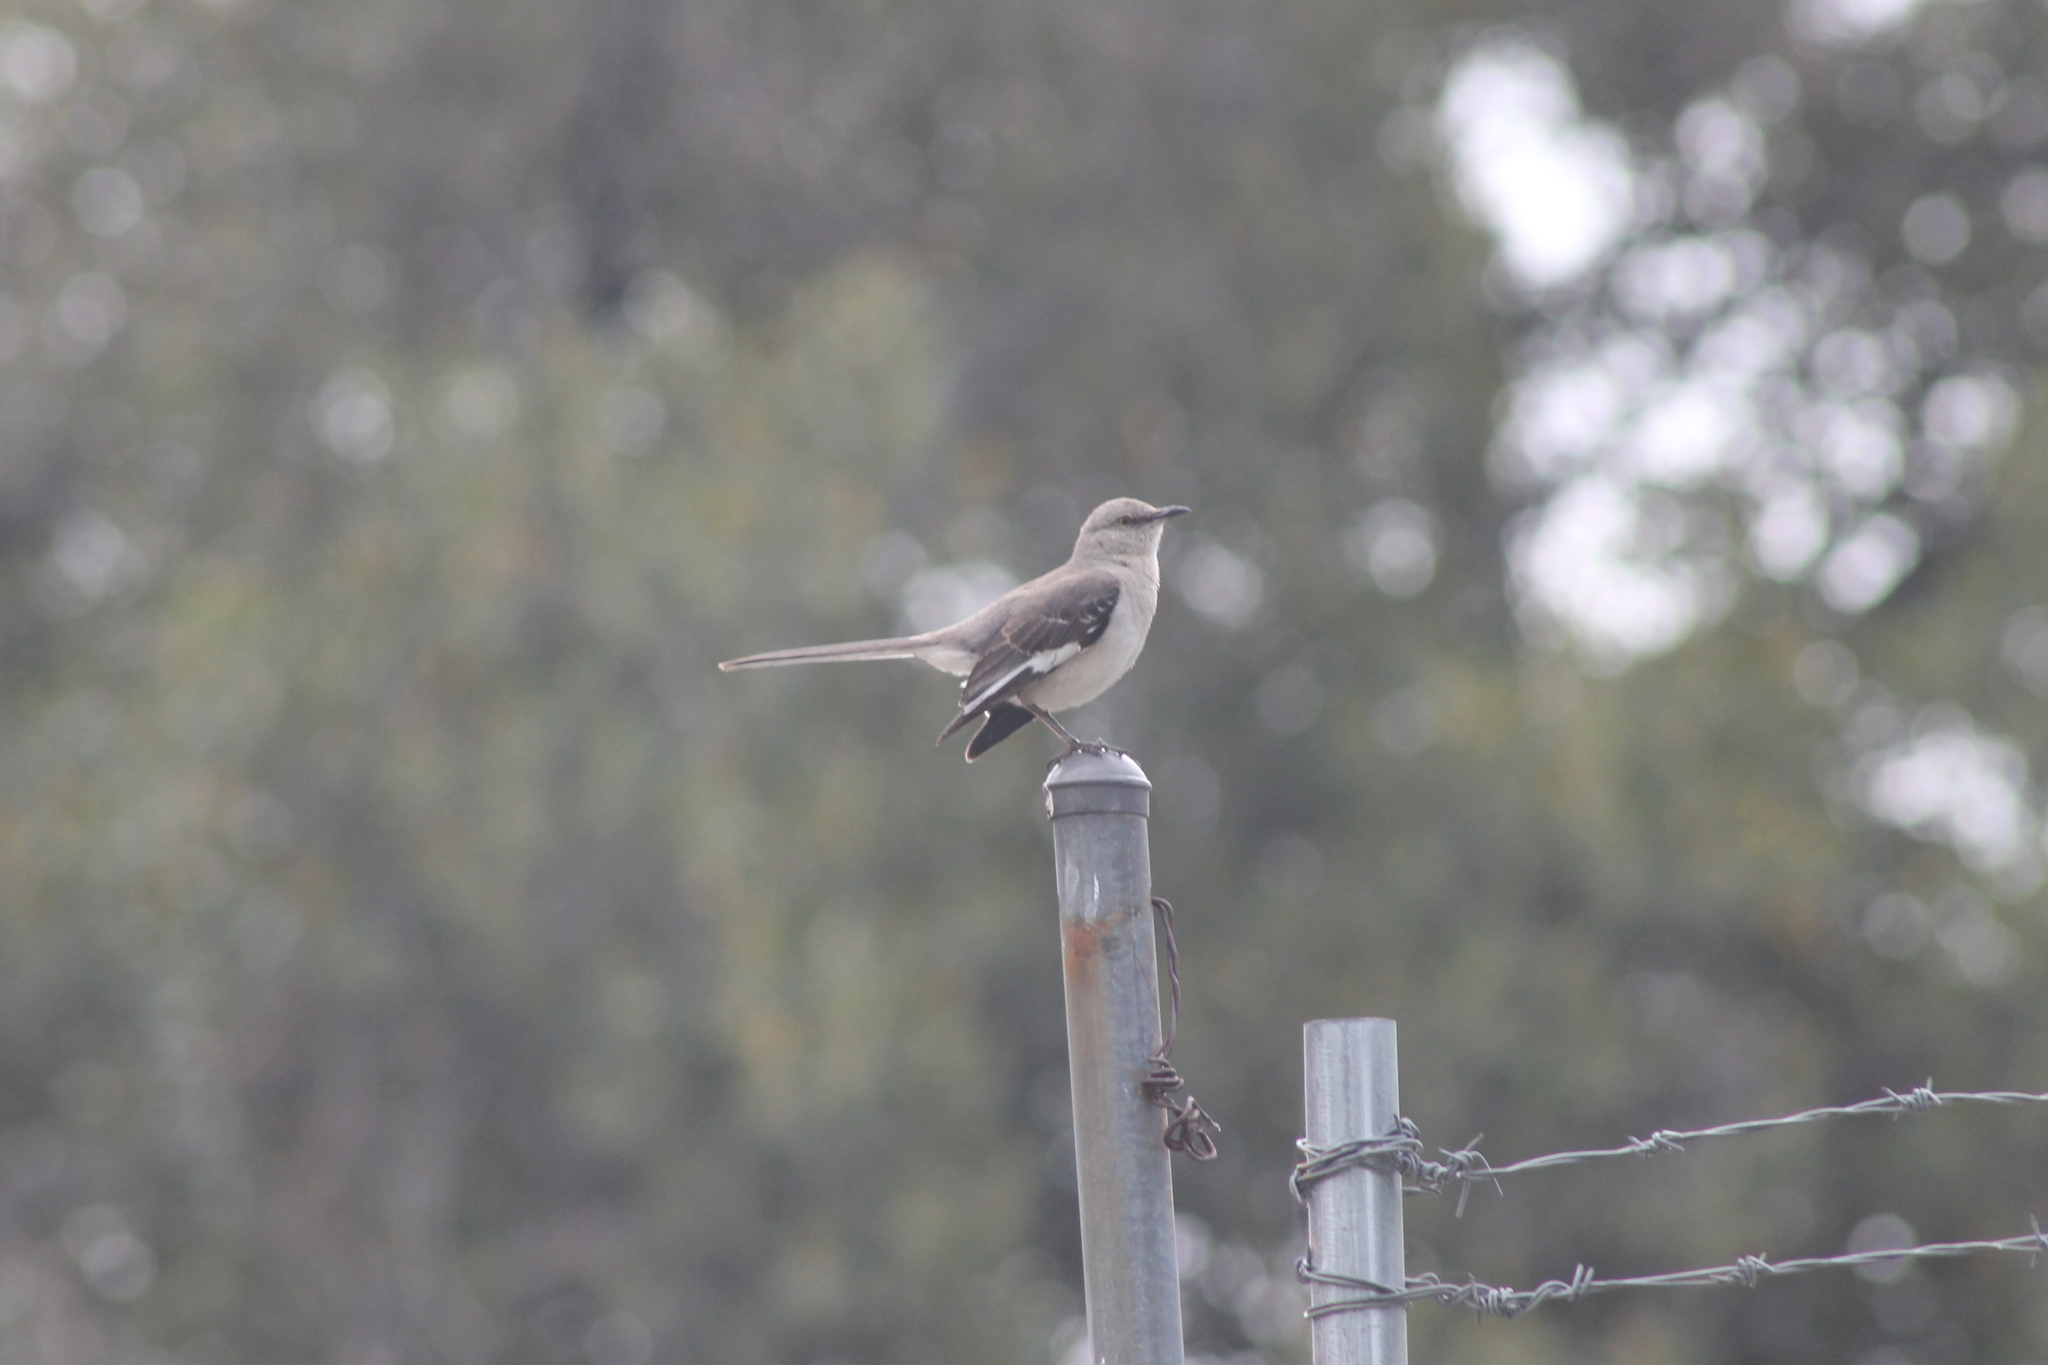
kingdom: Animalia
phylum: Chordata
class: Aves
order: Passeriformes
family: Mimidae
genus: Mimus
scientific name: Mimus polyglottos
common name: Northern mockingbird
